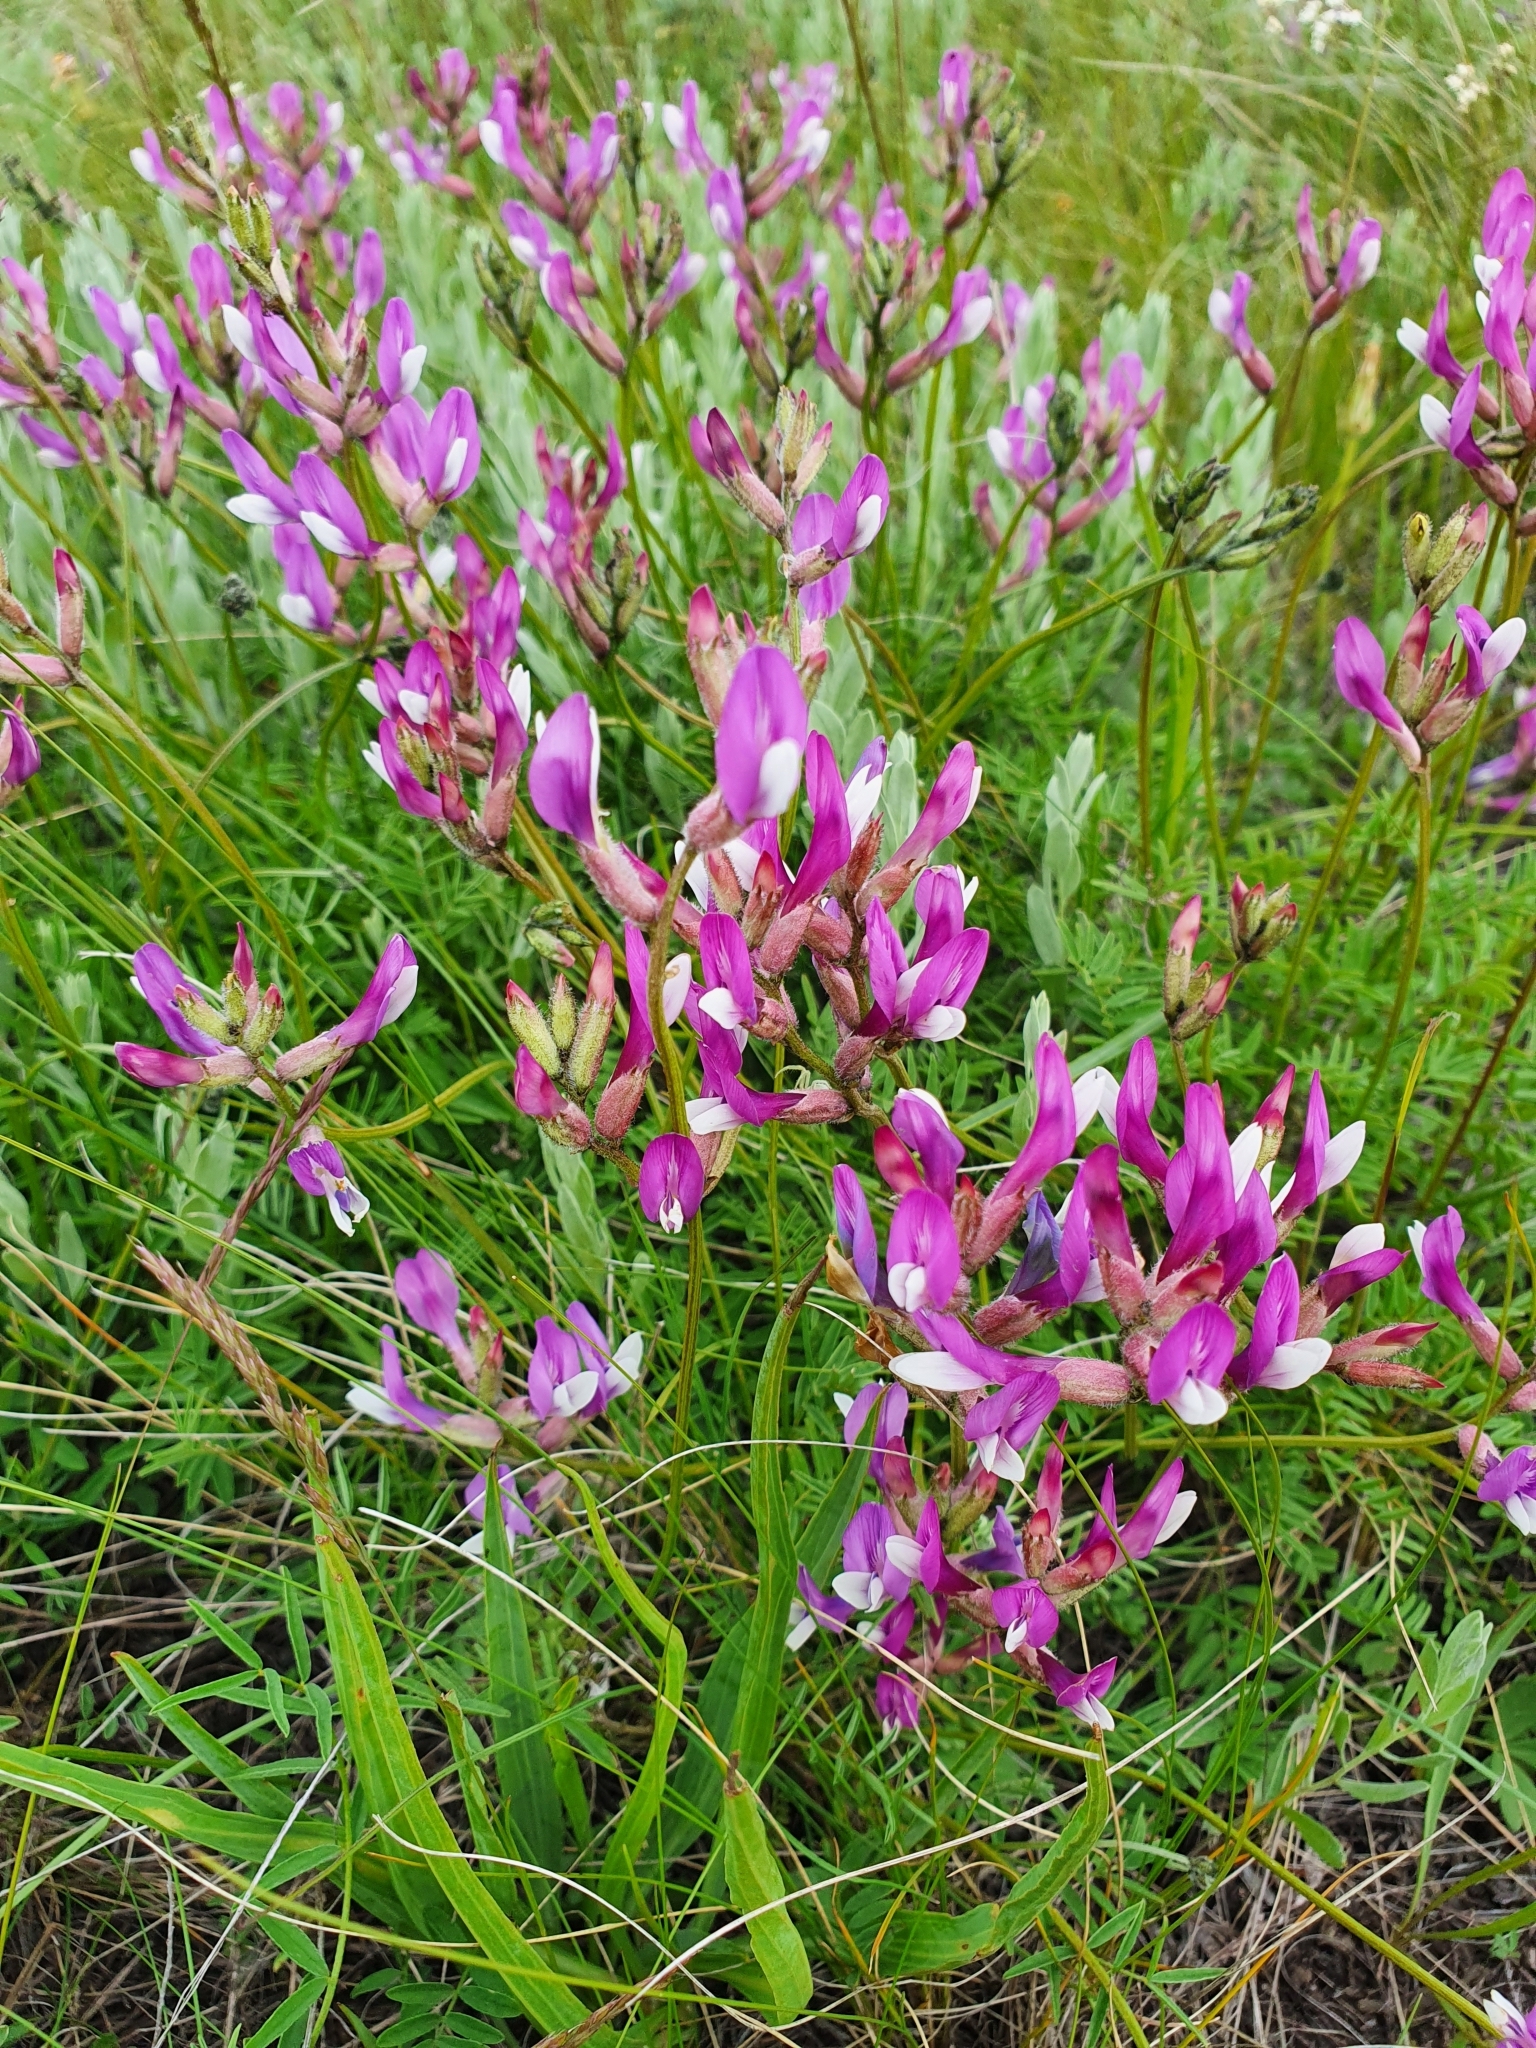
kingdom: Plantae
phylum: Tracheophyta
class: Magnoliopsida
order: Fabales
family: Fabaceae
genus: Astragalus
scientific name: Astragalus macropus
